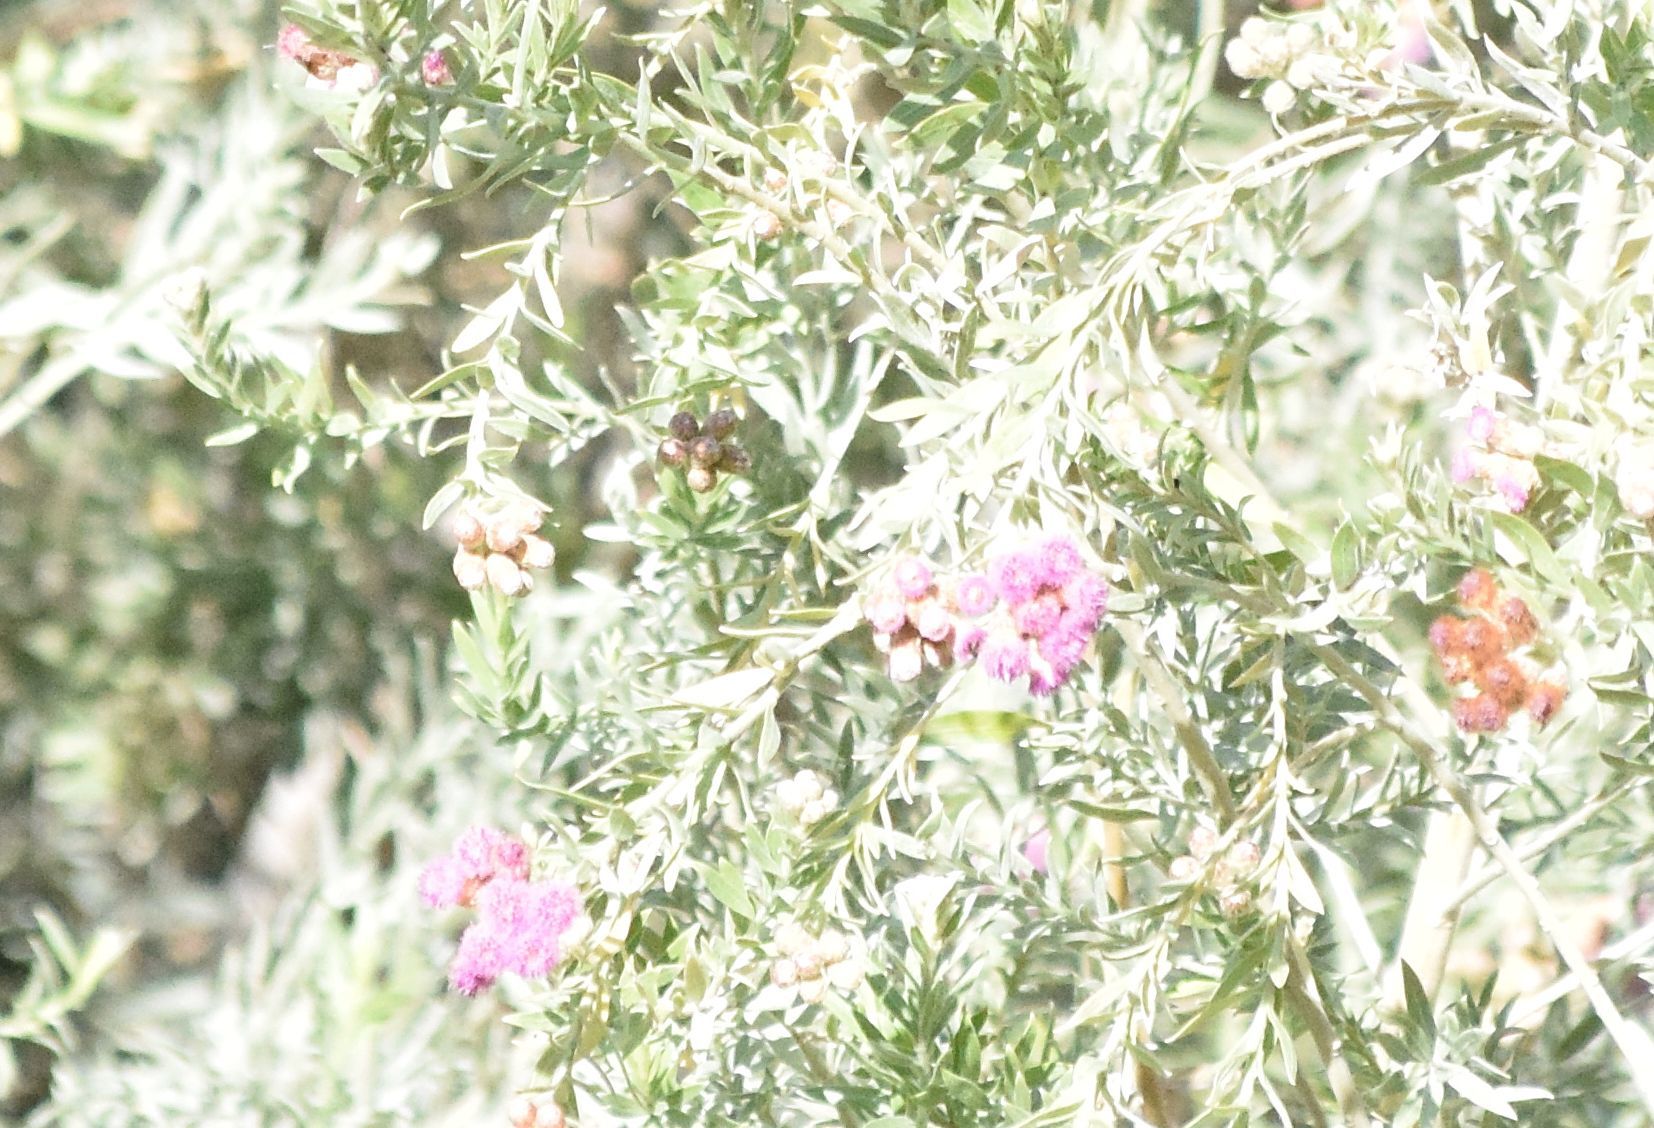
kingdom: Plantae
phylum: Tracheophyta
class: Magnoliopsida
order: Asterales
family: Asteraceae
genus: Pluchea
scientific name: Pluchea sericea
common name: Arrow-weed
